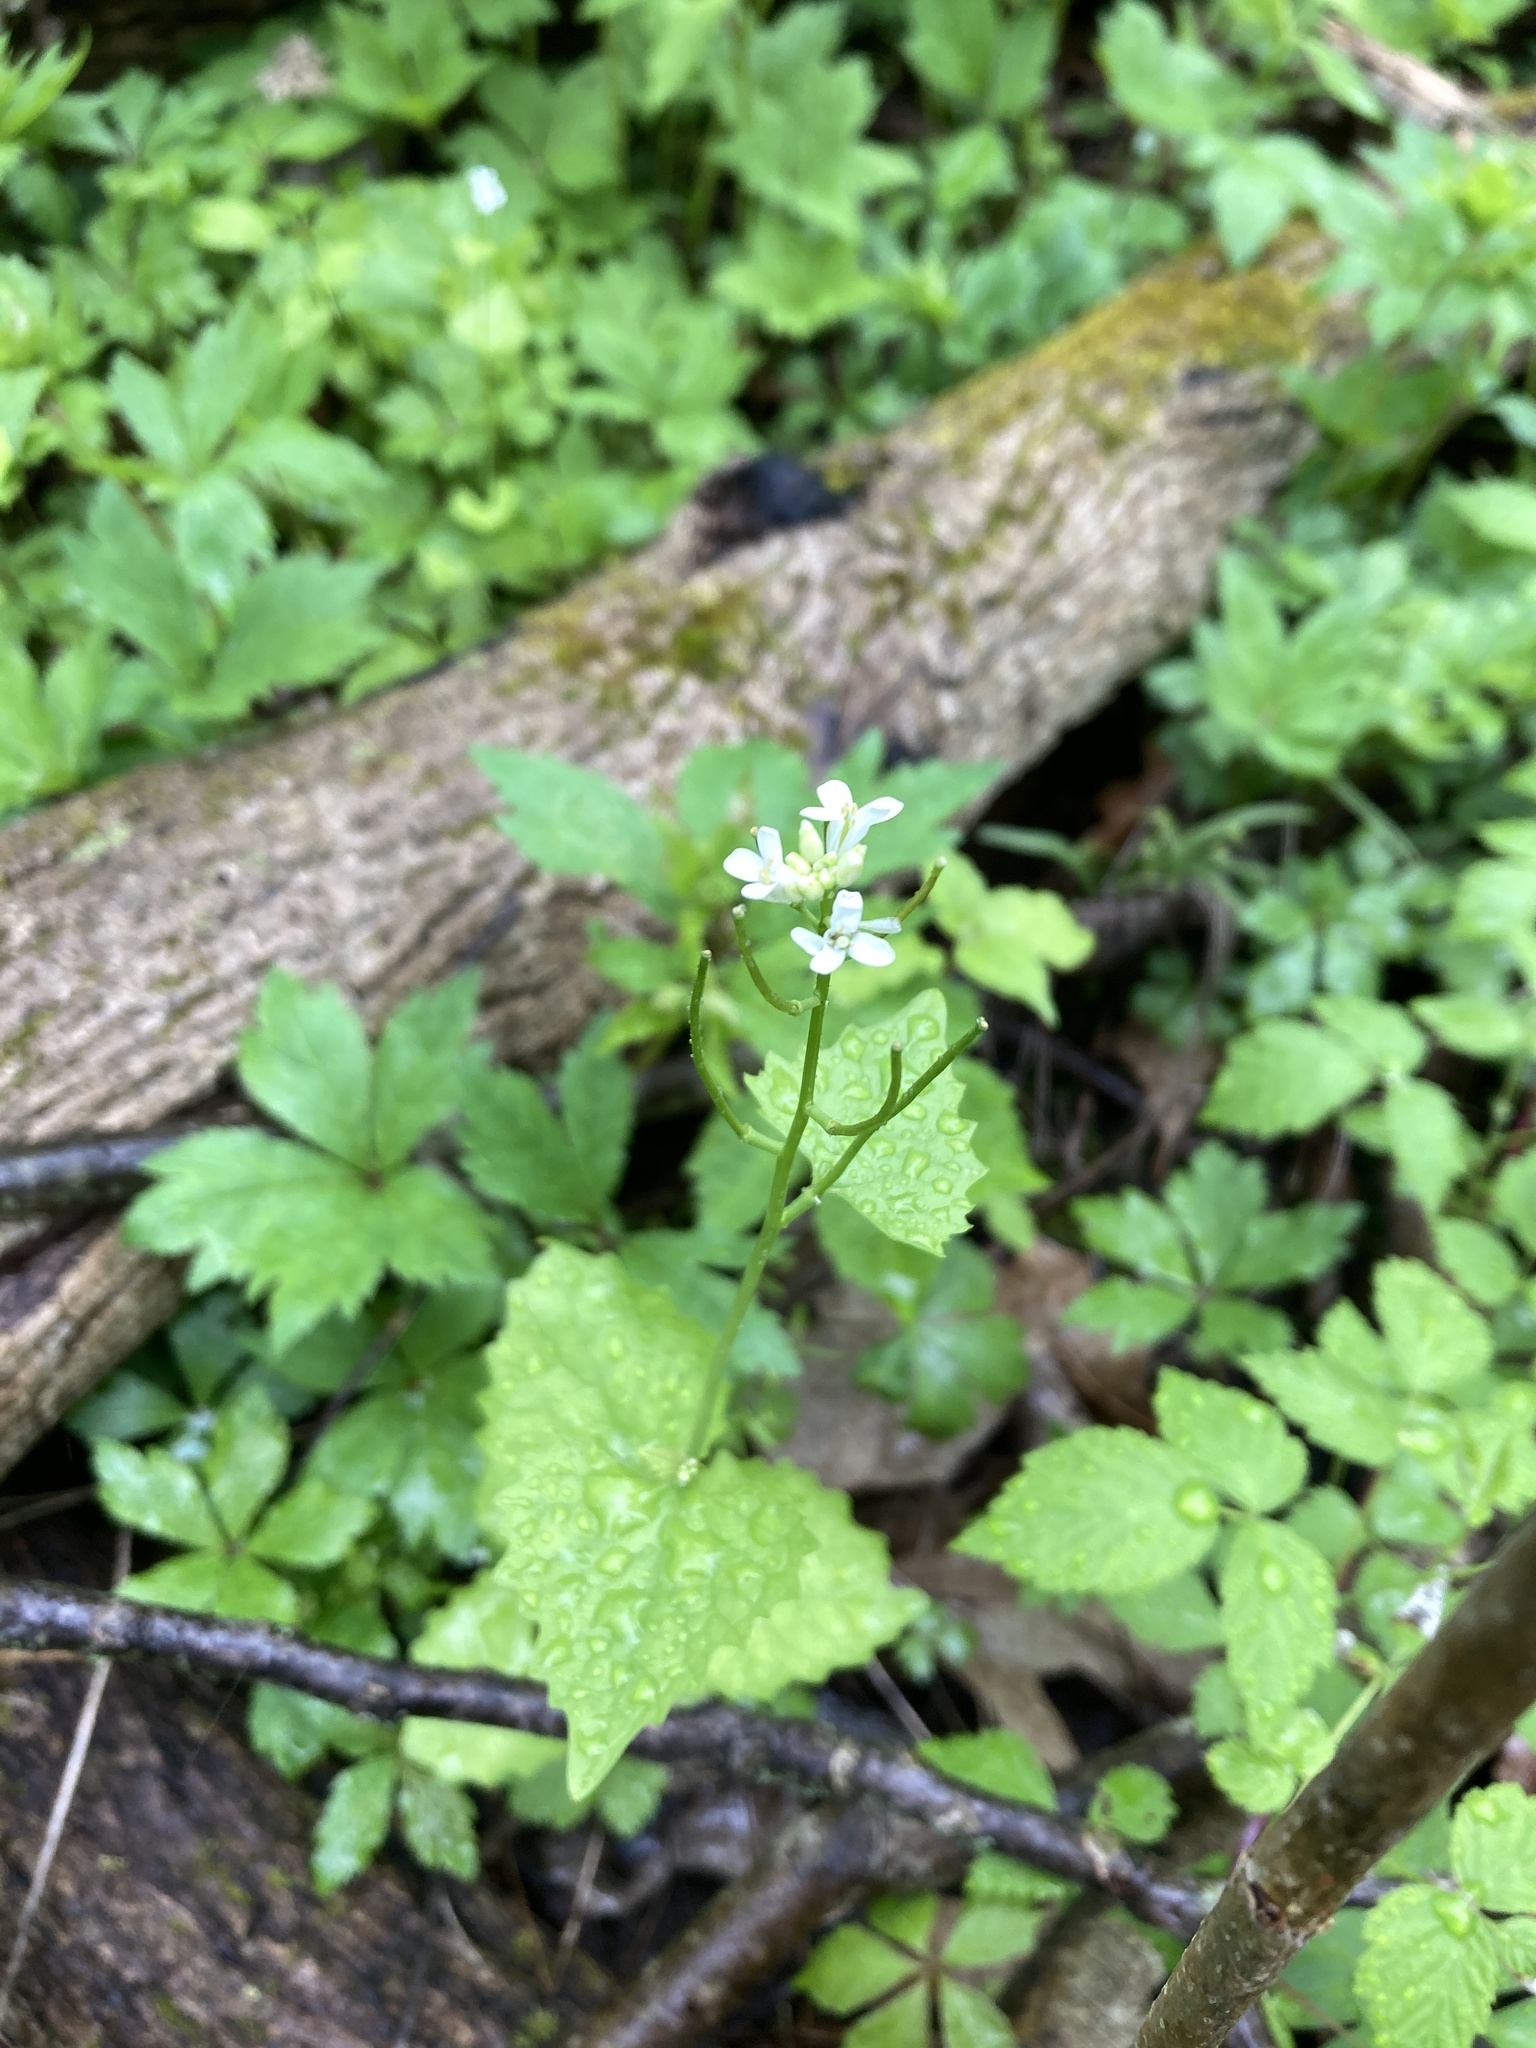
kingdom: Plantae
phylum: Tracheophyta
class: Magnoliopsida
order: Brassicales
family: Brassicaceae
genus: Alliaria
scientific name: Alliaria petiolata
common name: Garlic mustard
